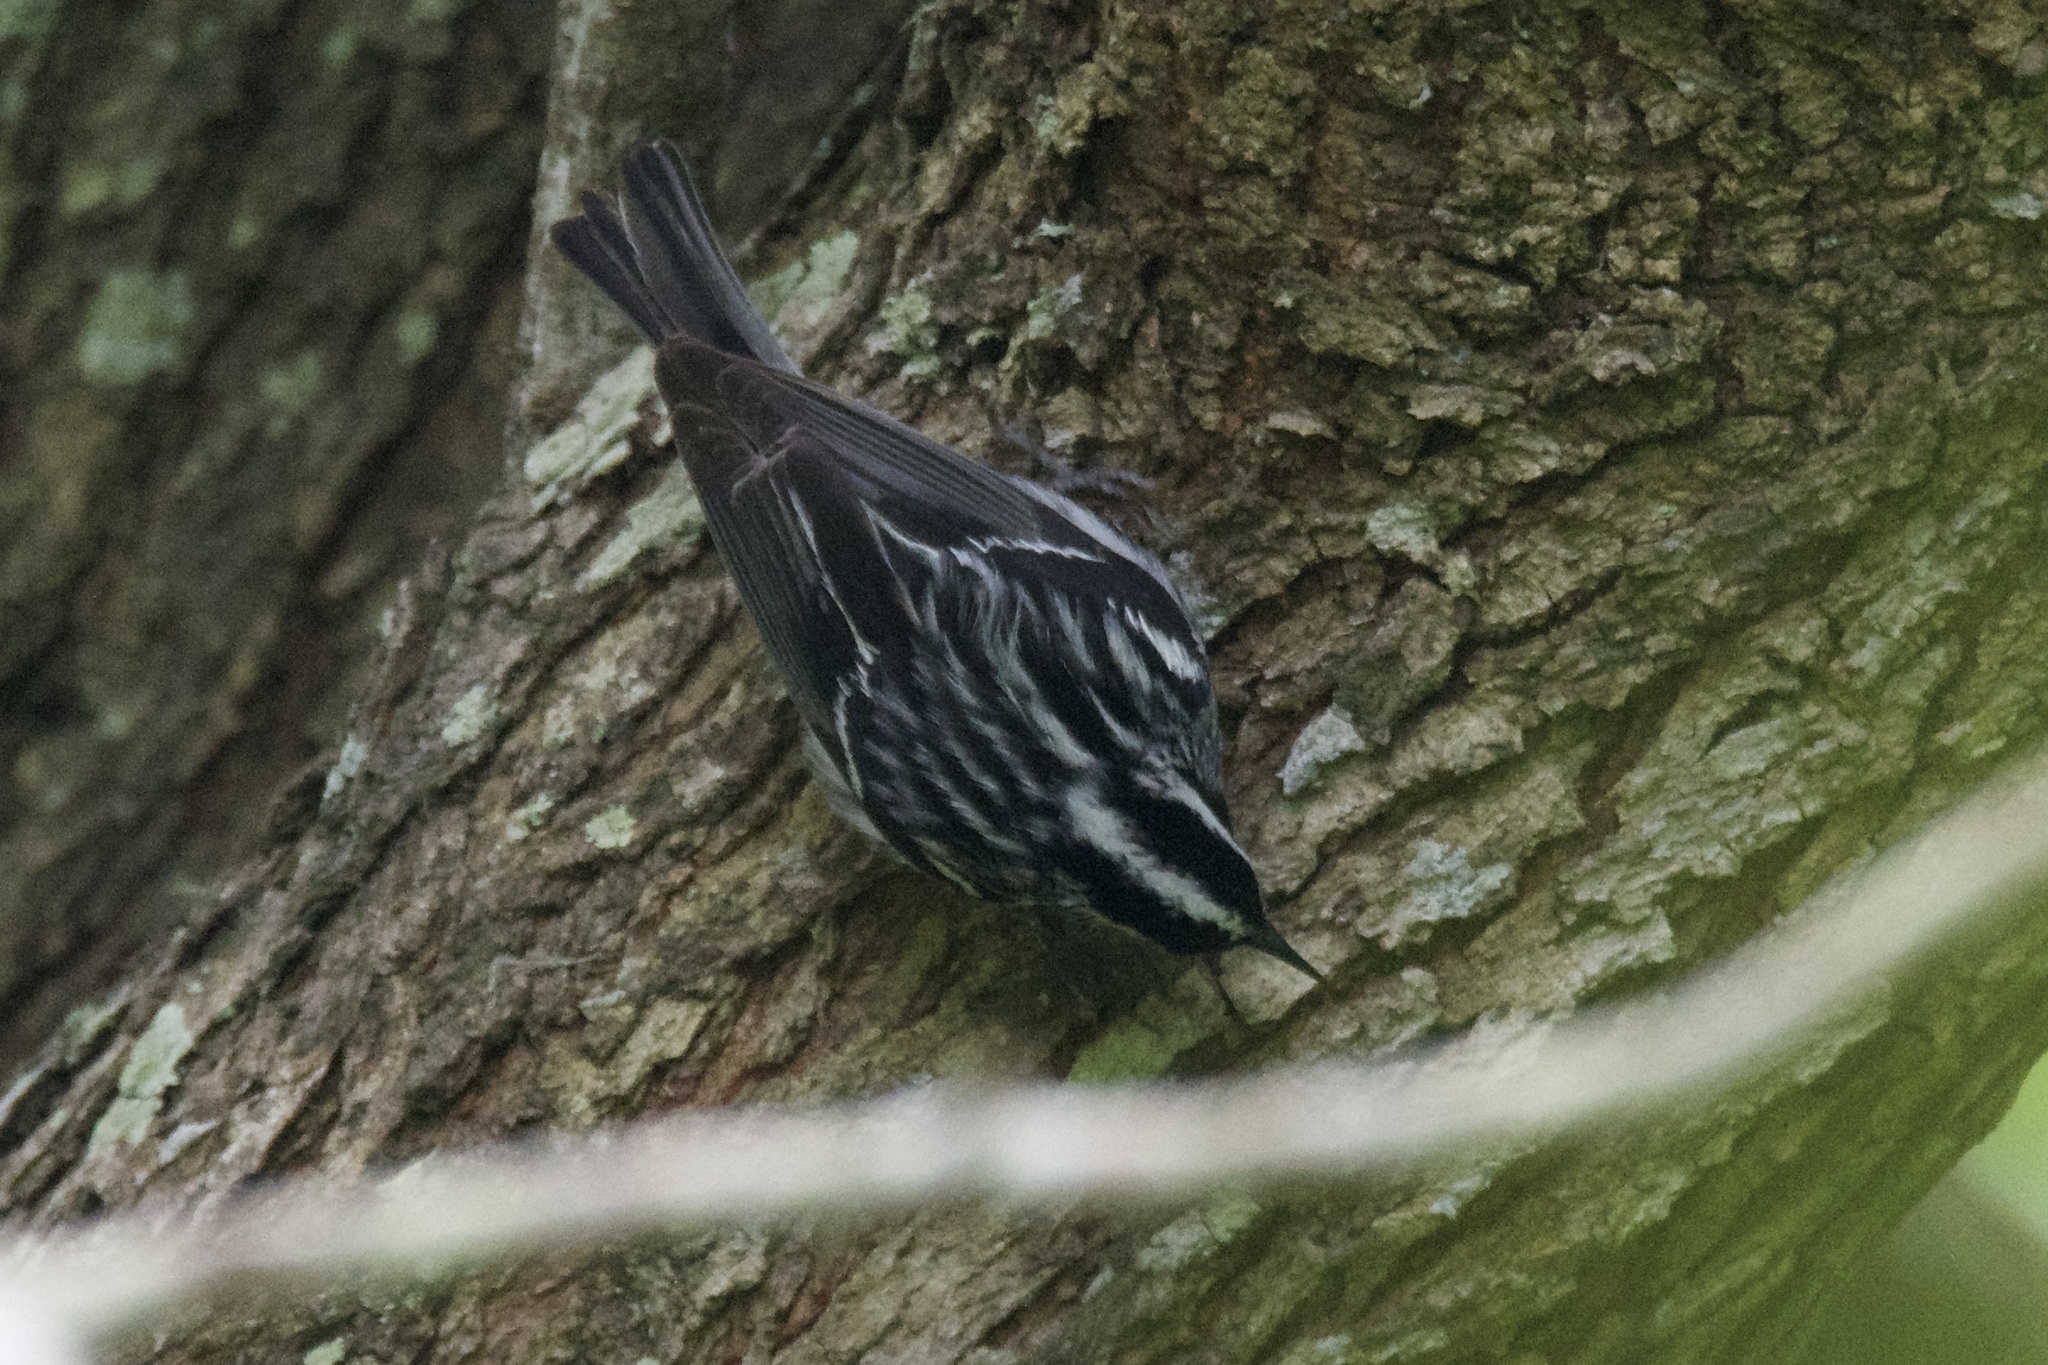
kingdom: Animalia
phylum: Chordata
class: Aves
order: Passeriformes
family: Parulidae
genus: Mniotilta
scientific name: Mniotilta varia
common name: Black-and-white warbler
